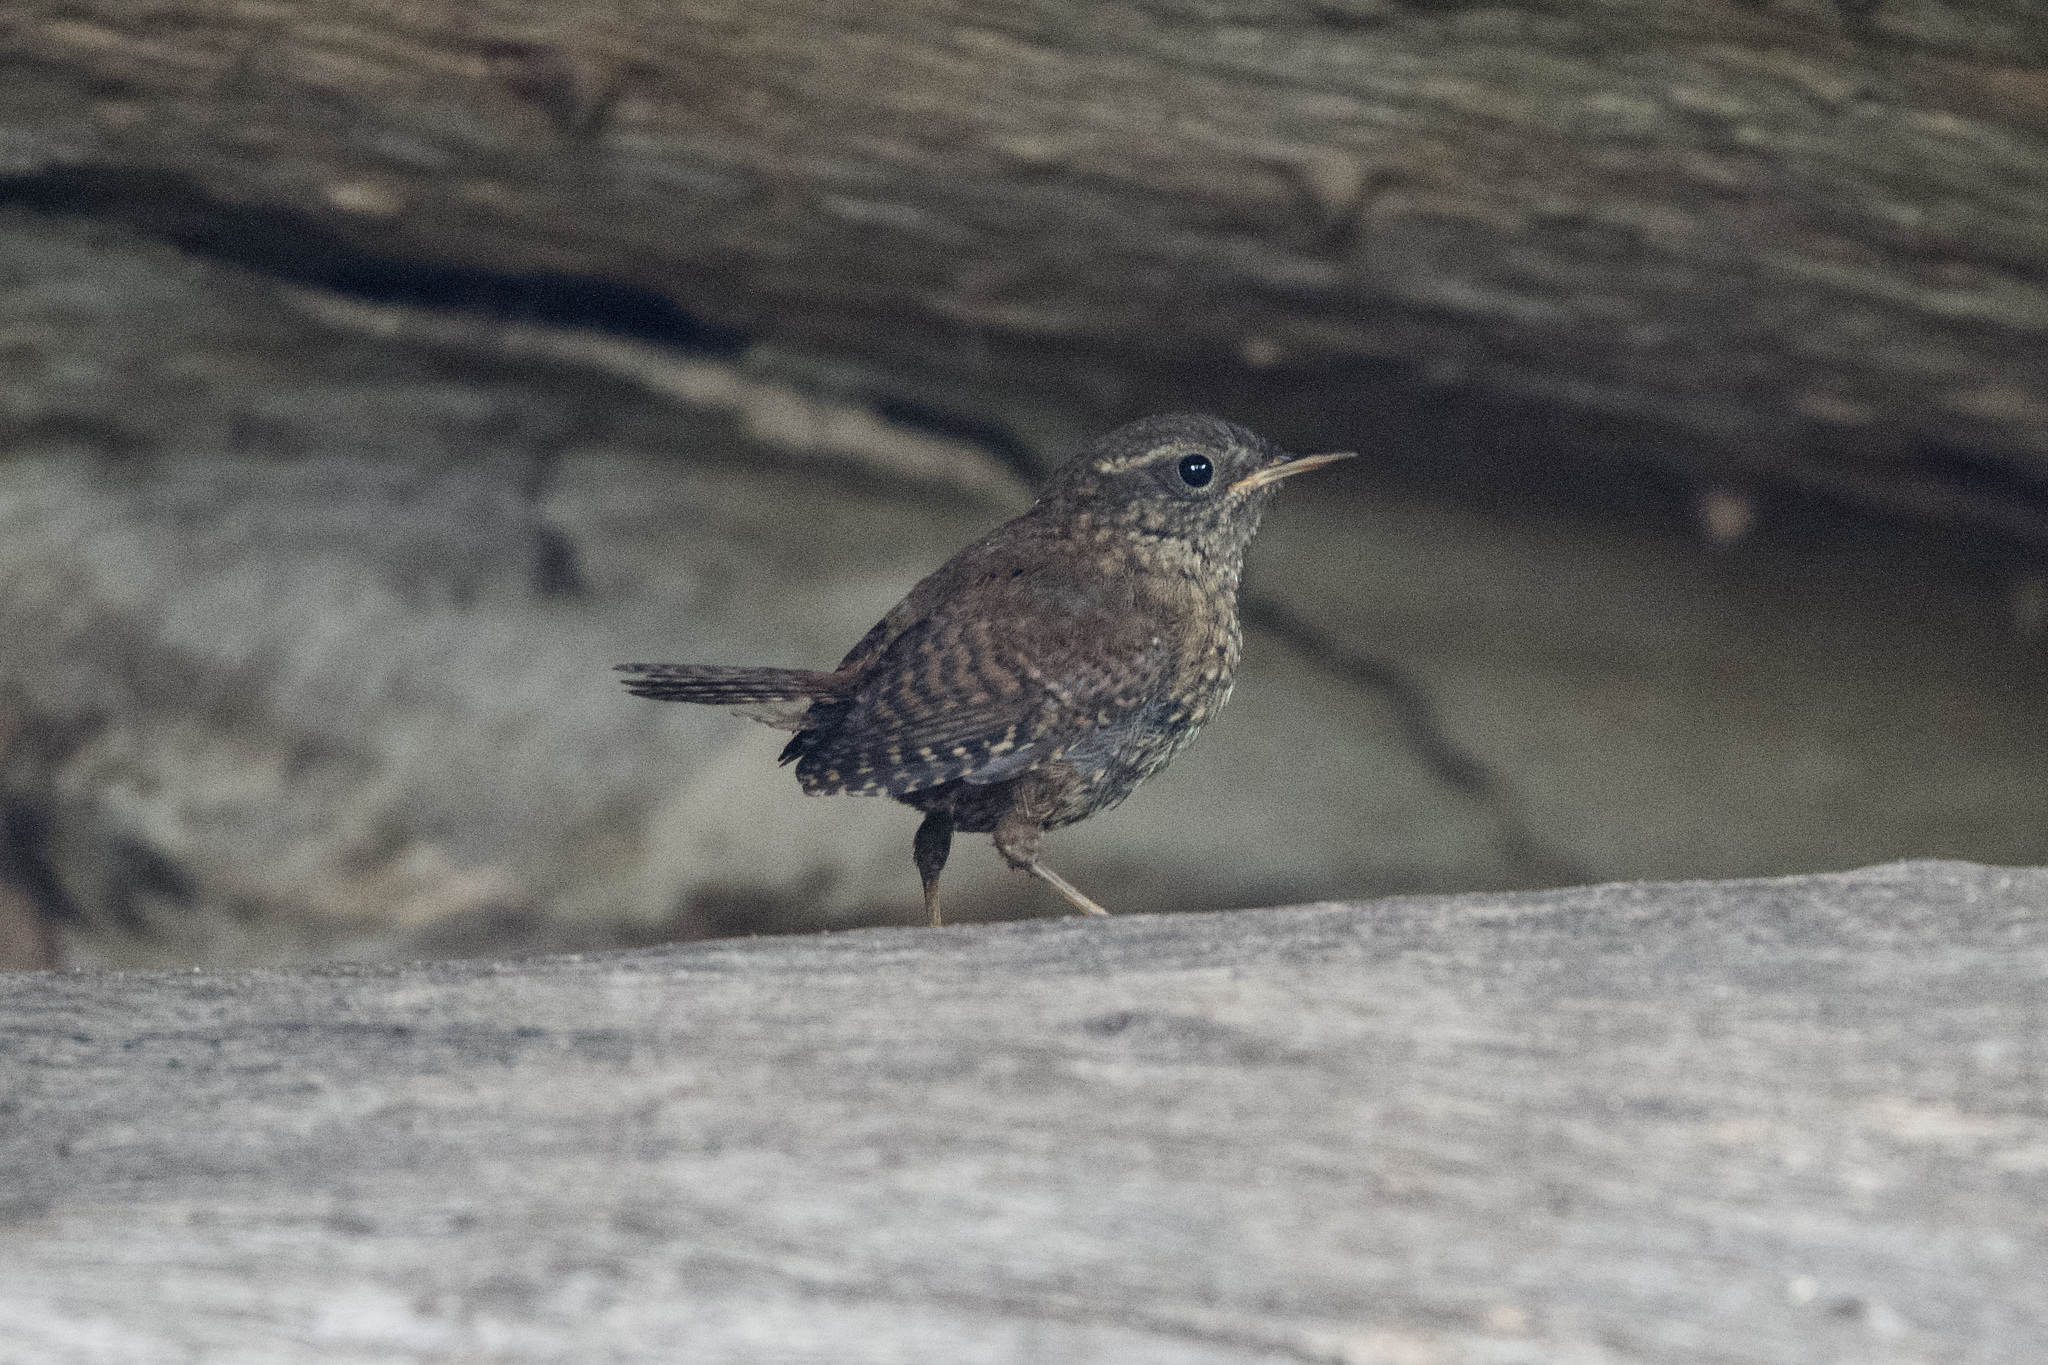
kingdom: Animalia
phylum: Chordata
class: Aves
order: Passeriformes
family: Troglodytidae
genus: Troglodytes
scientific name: Troglodytes pacificus
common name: Pacific wren
